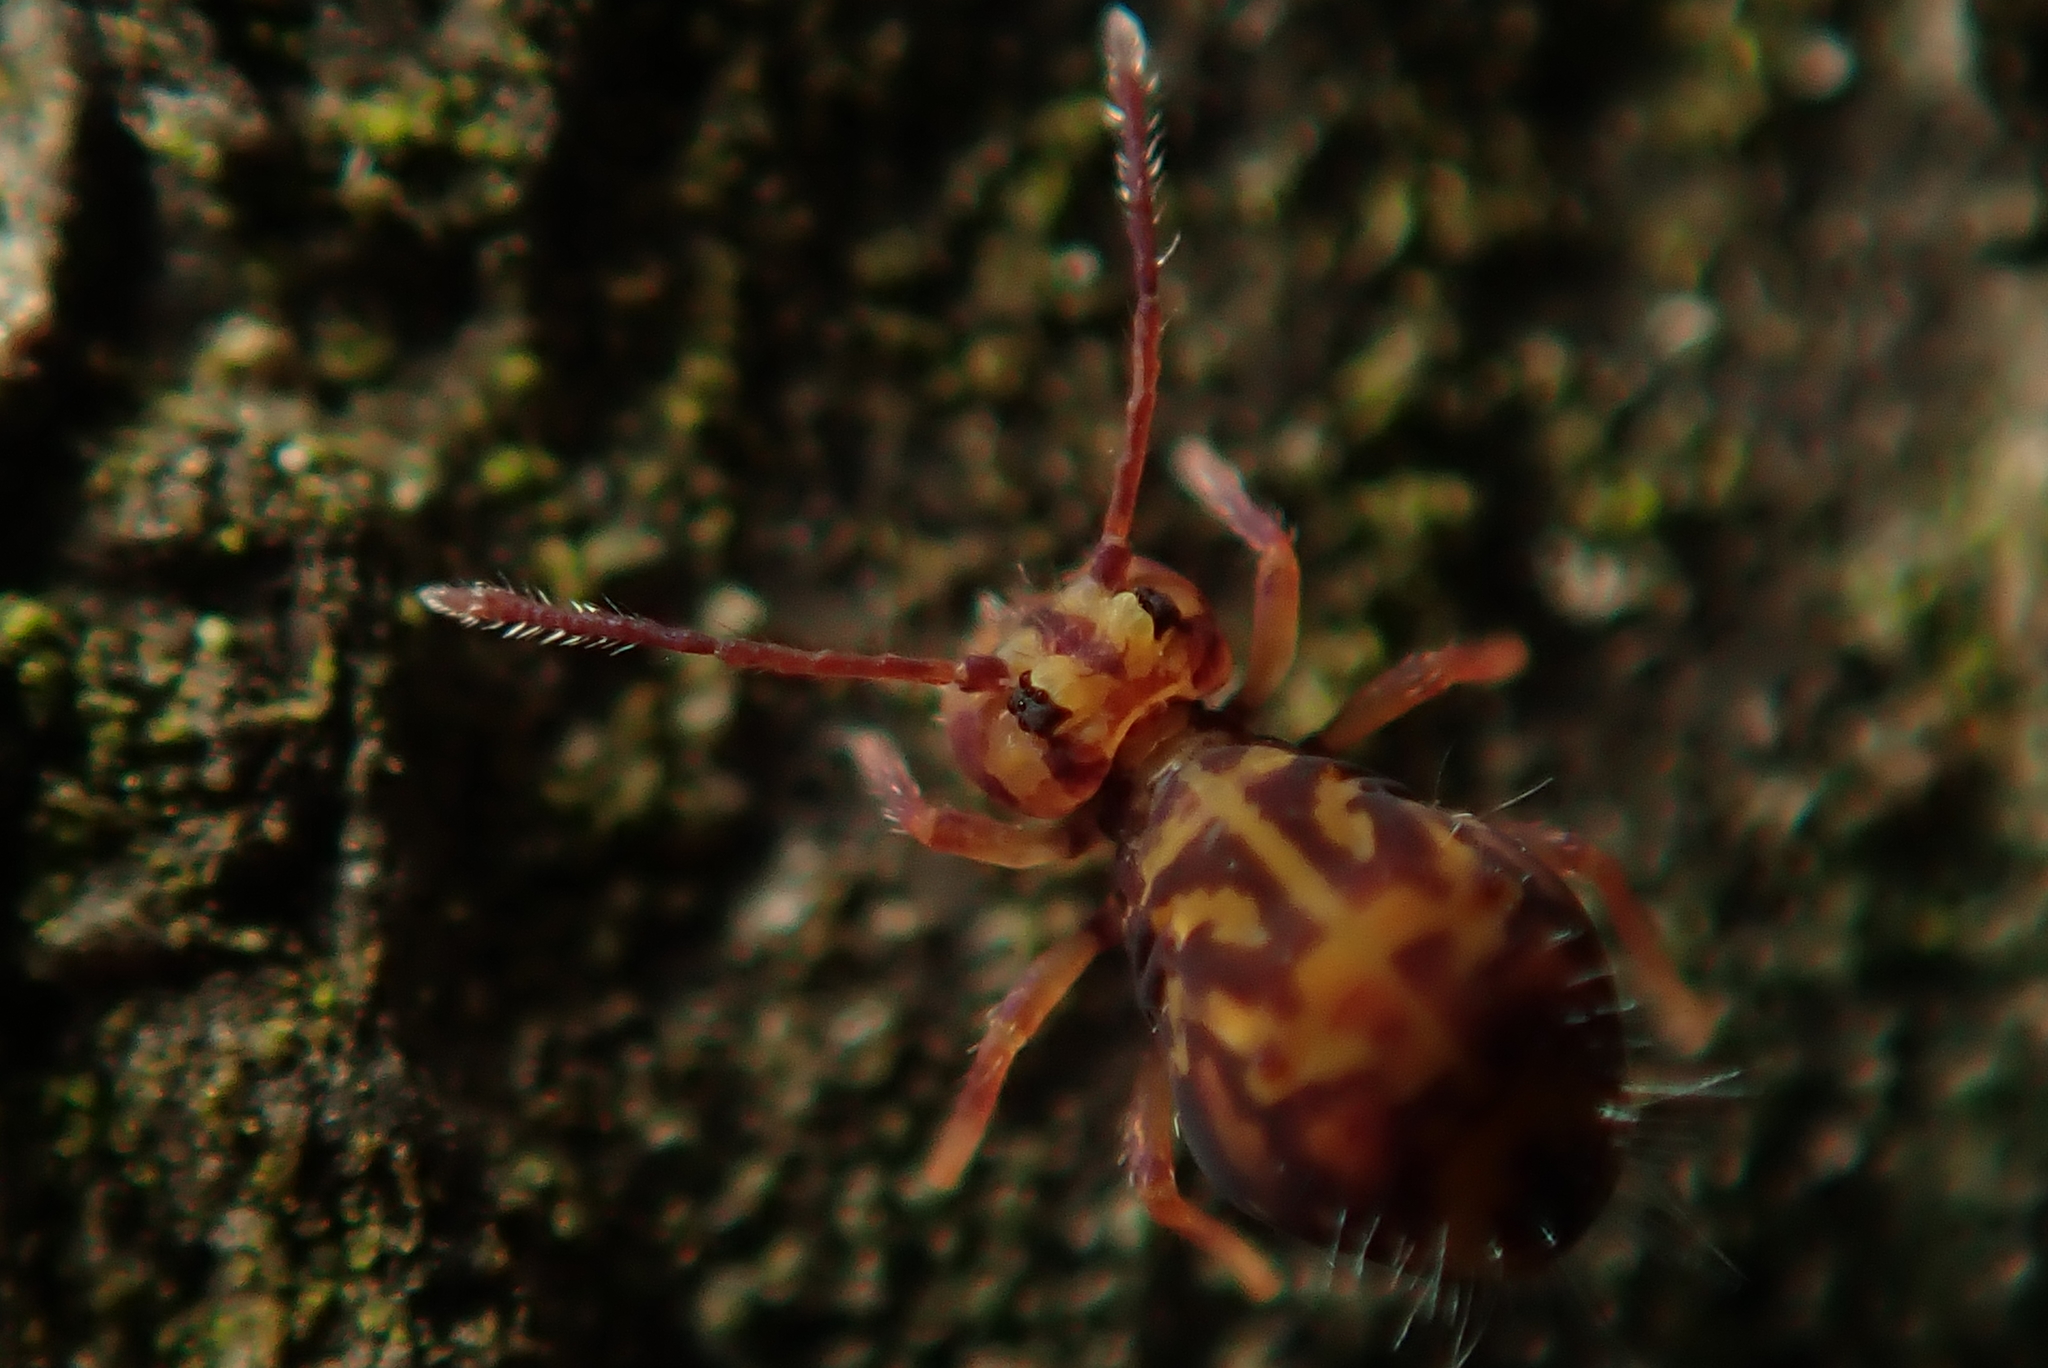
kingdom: Animalia
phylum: Arthropoda
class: Collembola
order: Symphypleona
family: Dicyrtomidae
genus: Dicyrtomina
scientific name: Dicyrtomina ornata
